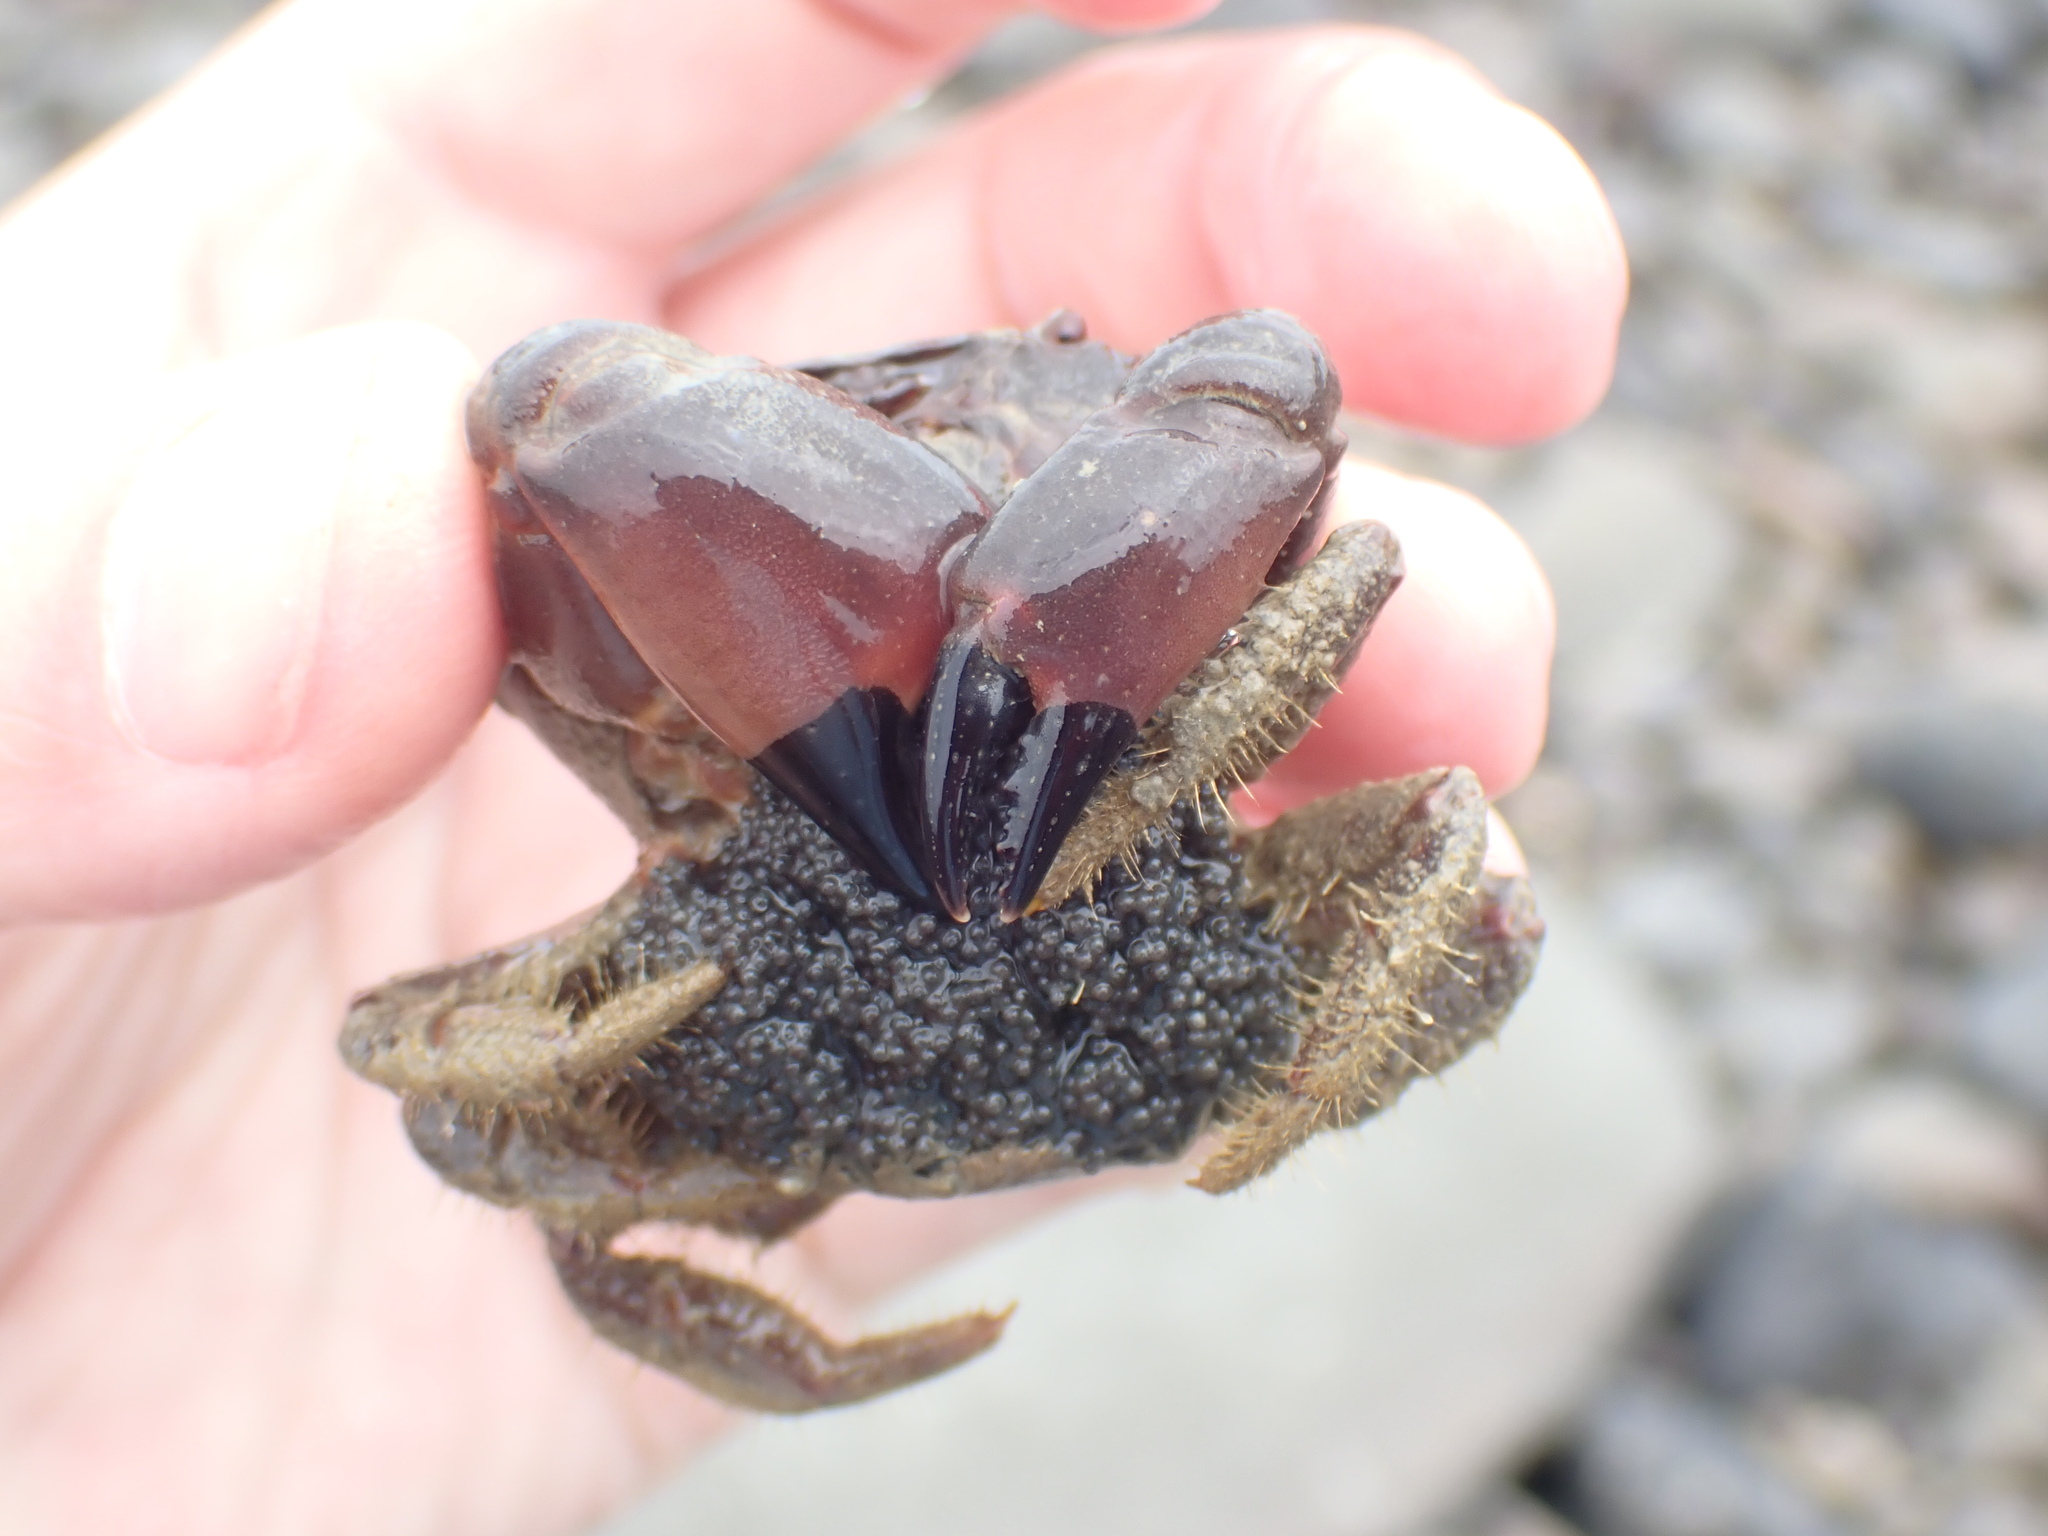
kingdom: Animalia
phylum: Arthropoda
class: Malacostraca
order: Decapoda
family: Oziidae
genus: Ozius
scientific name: Ozius deplanatus
